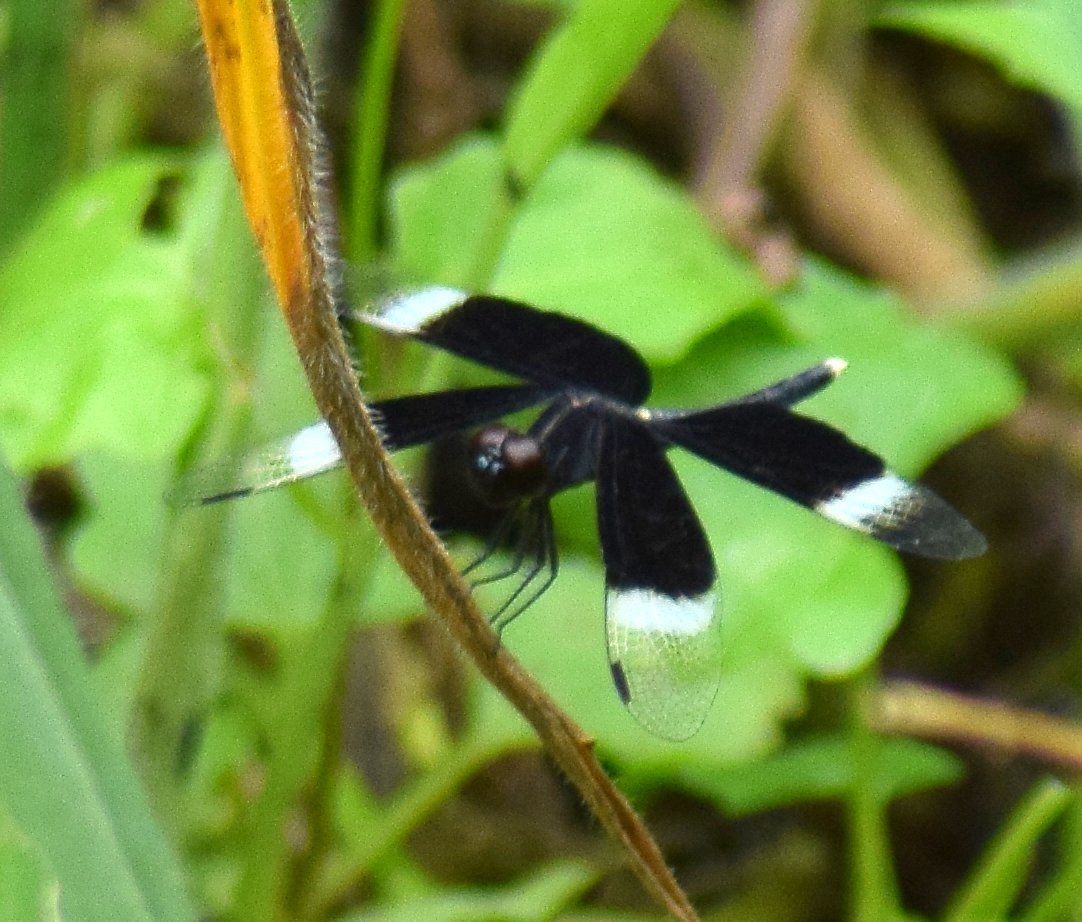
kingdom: Animalia
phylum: Arthropoda
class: Insecta
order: Odonata
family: Libellulidae
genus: Neurothemis
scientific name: Neurothemis tullia
